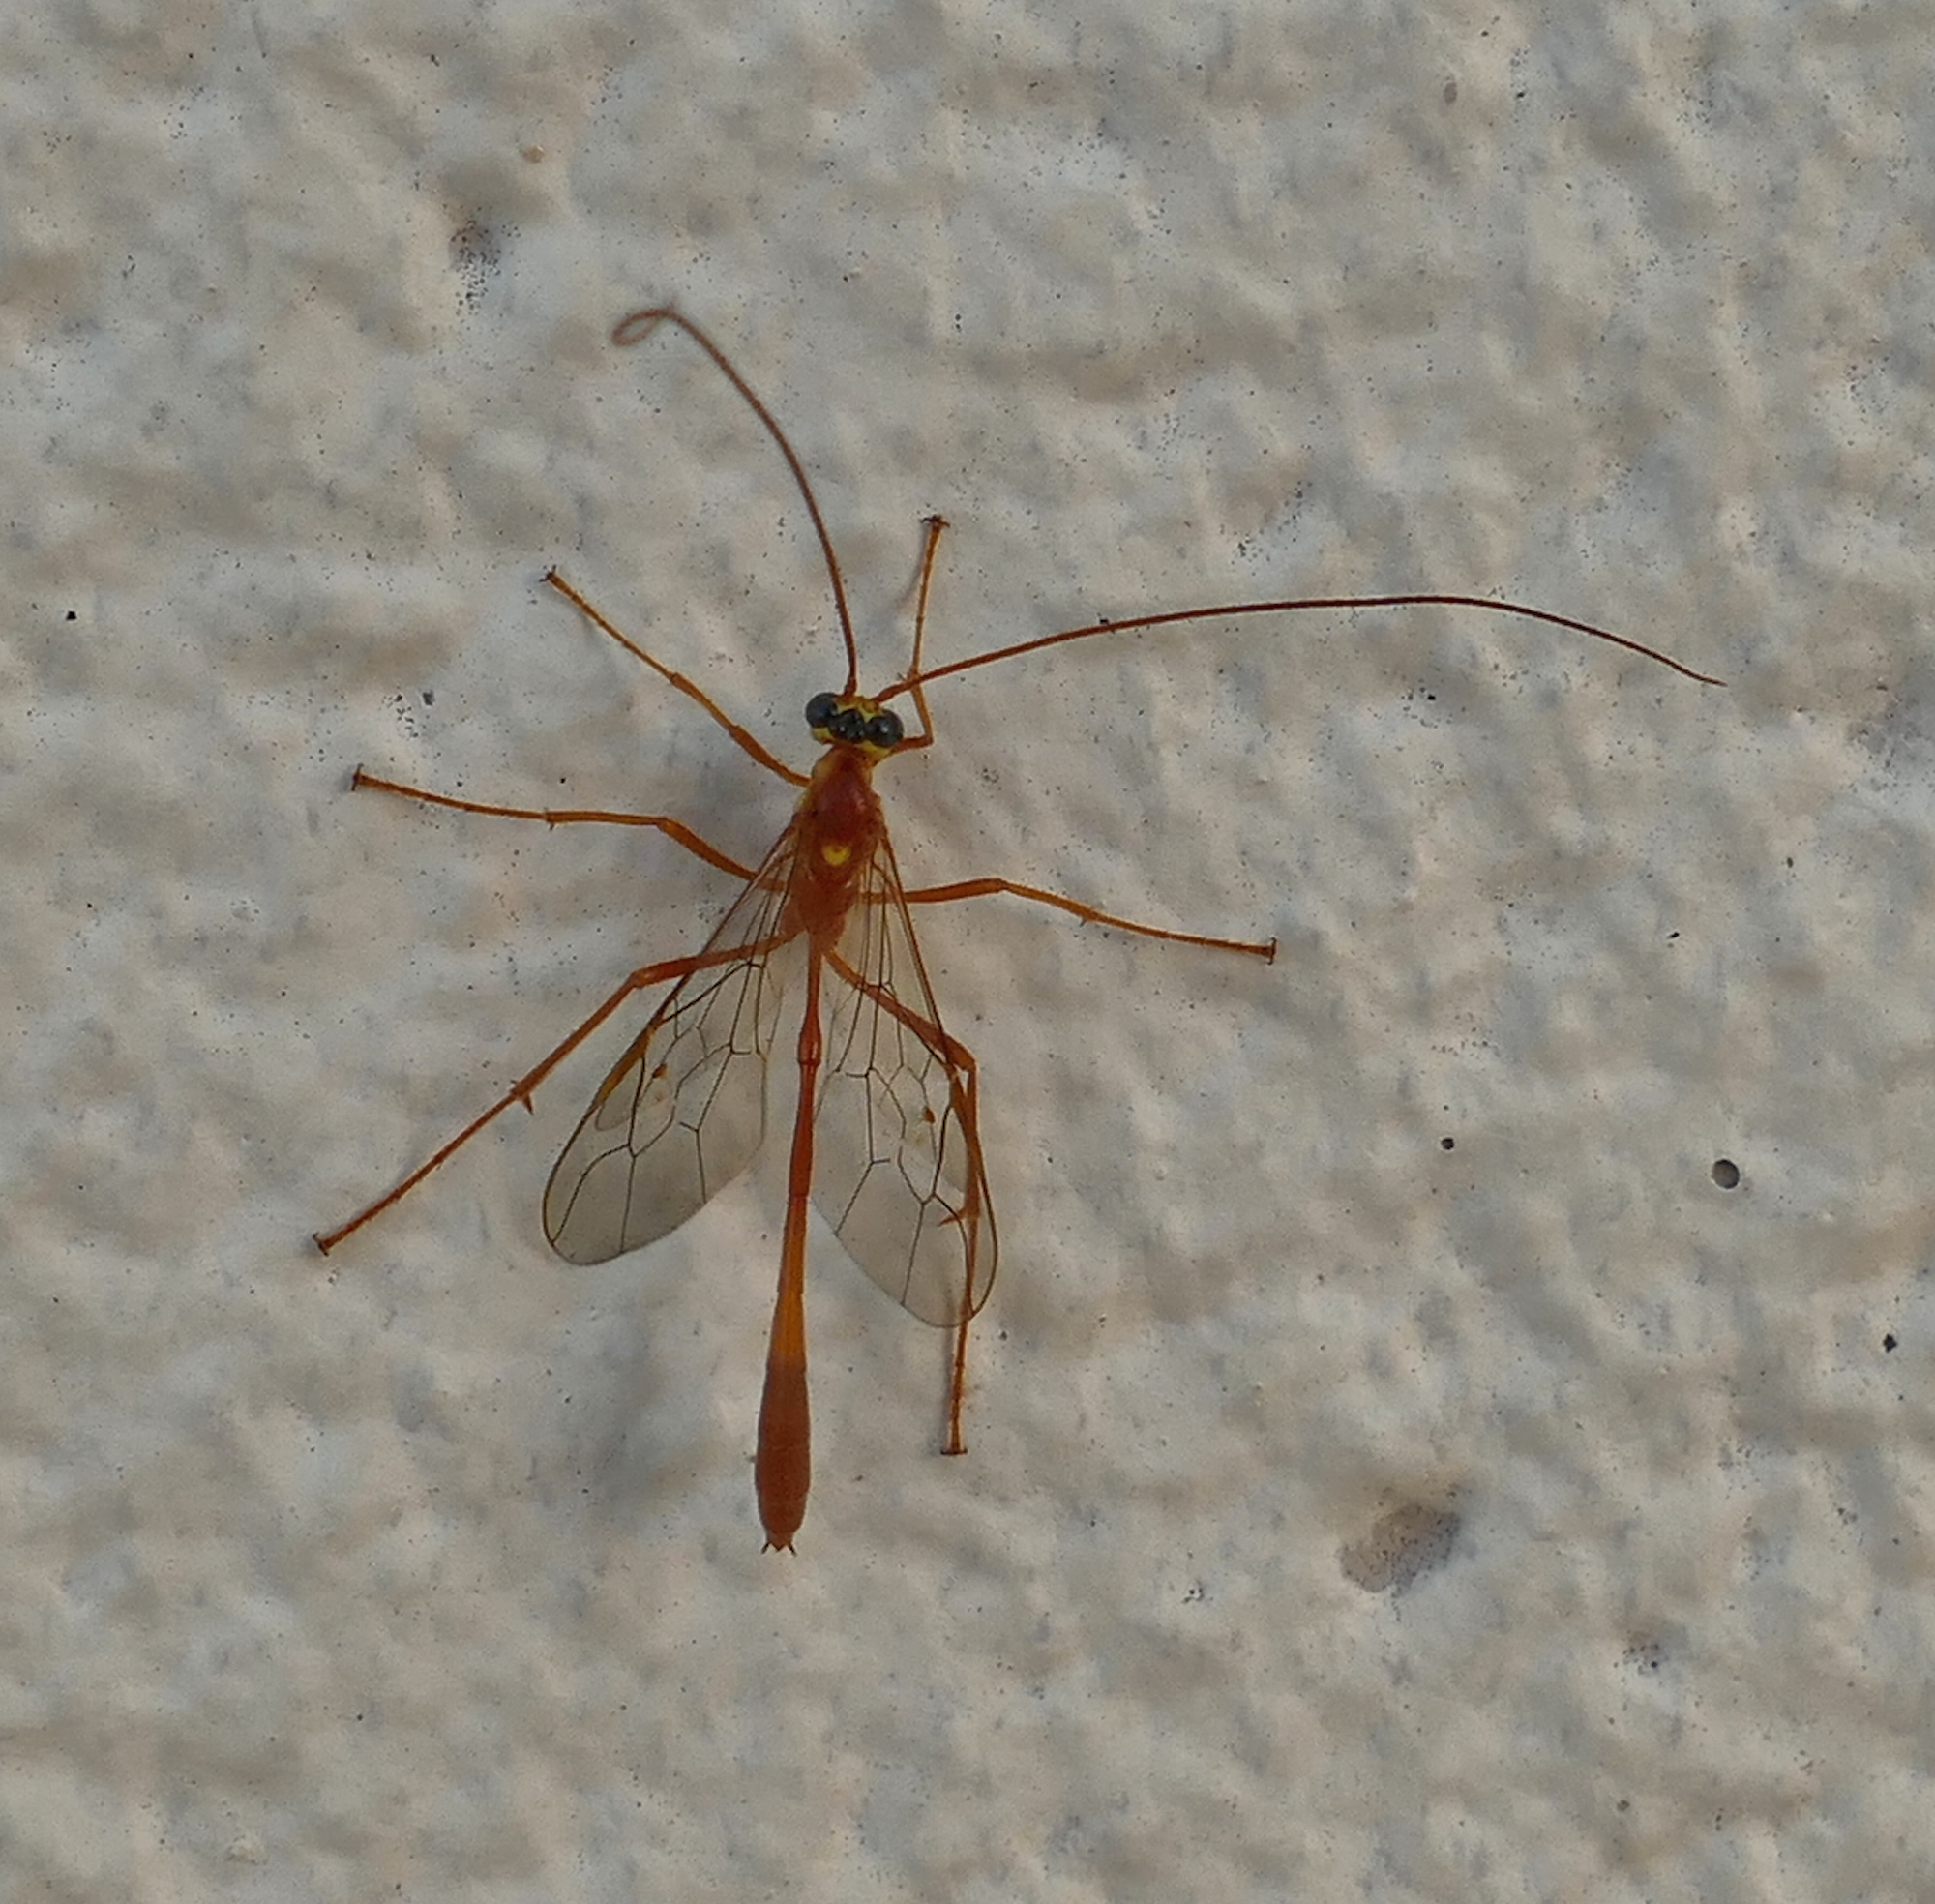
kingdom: Animalia
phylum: Arthropoda
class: Insecta
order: Hymenoptera
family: Ichneumonidae
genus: Enicospilus
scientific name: Enicospilus flavostigma
